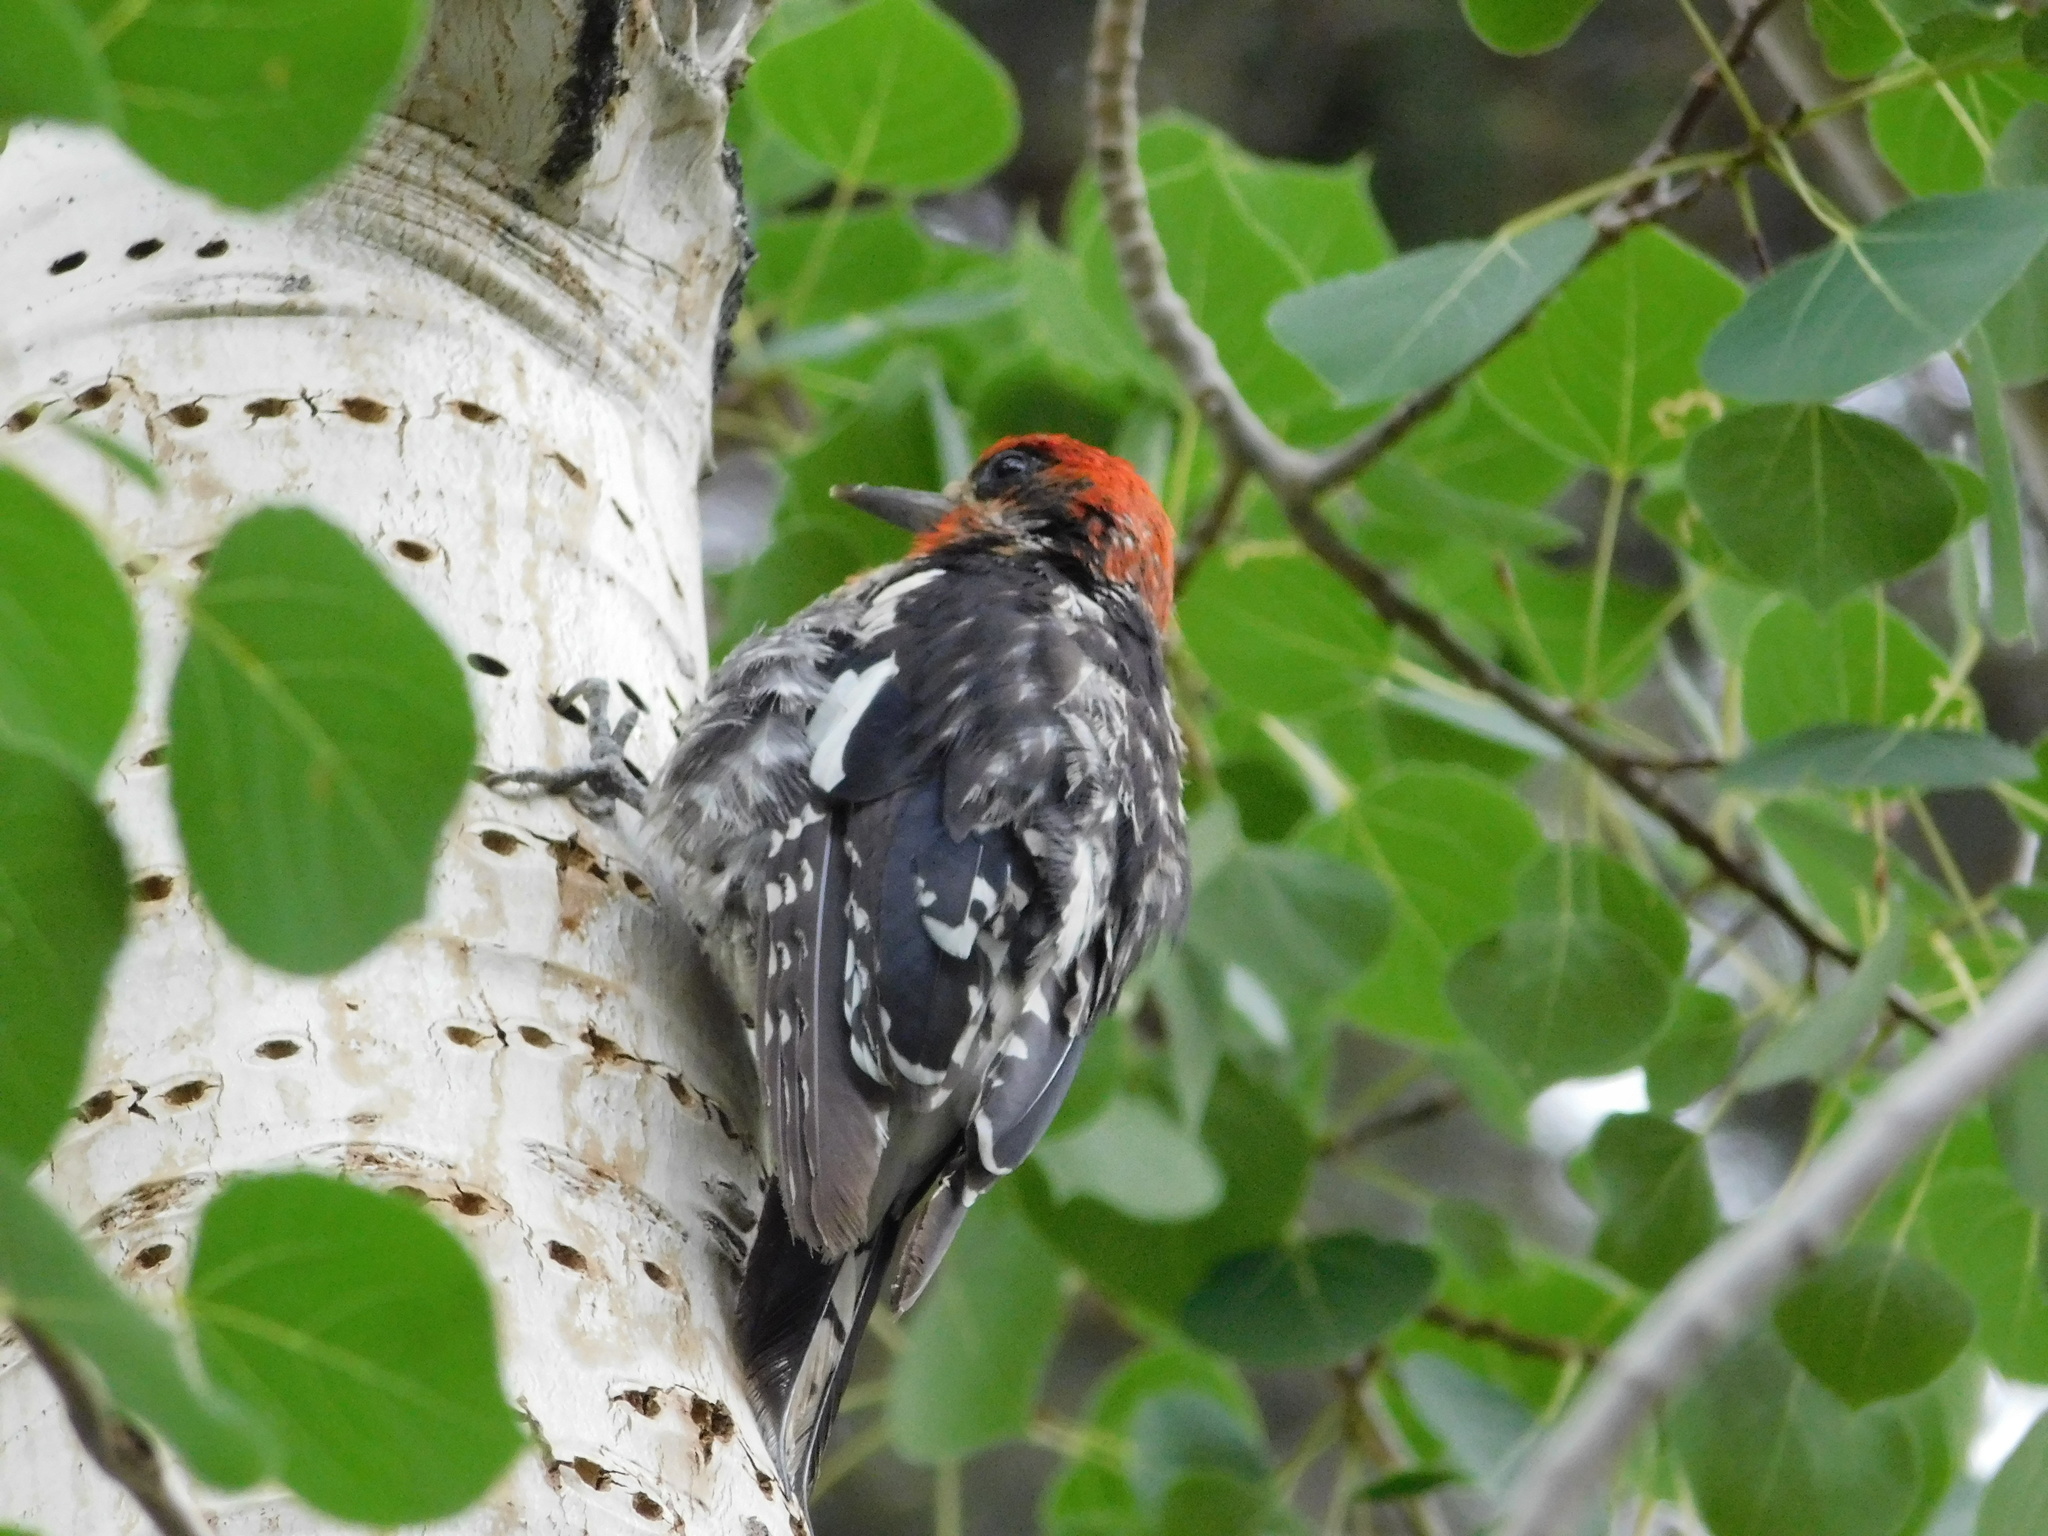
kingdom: Animalia
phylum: Chordata
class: Aves
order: Piciformes
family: Picidae
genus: Sphyrapicus
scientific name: Sphyrapicus ruber
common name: Red-breasted sapsucker
